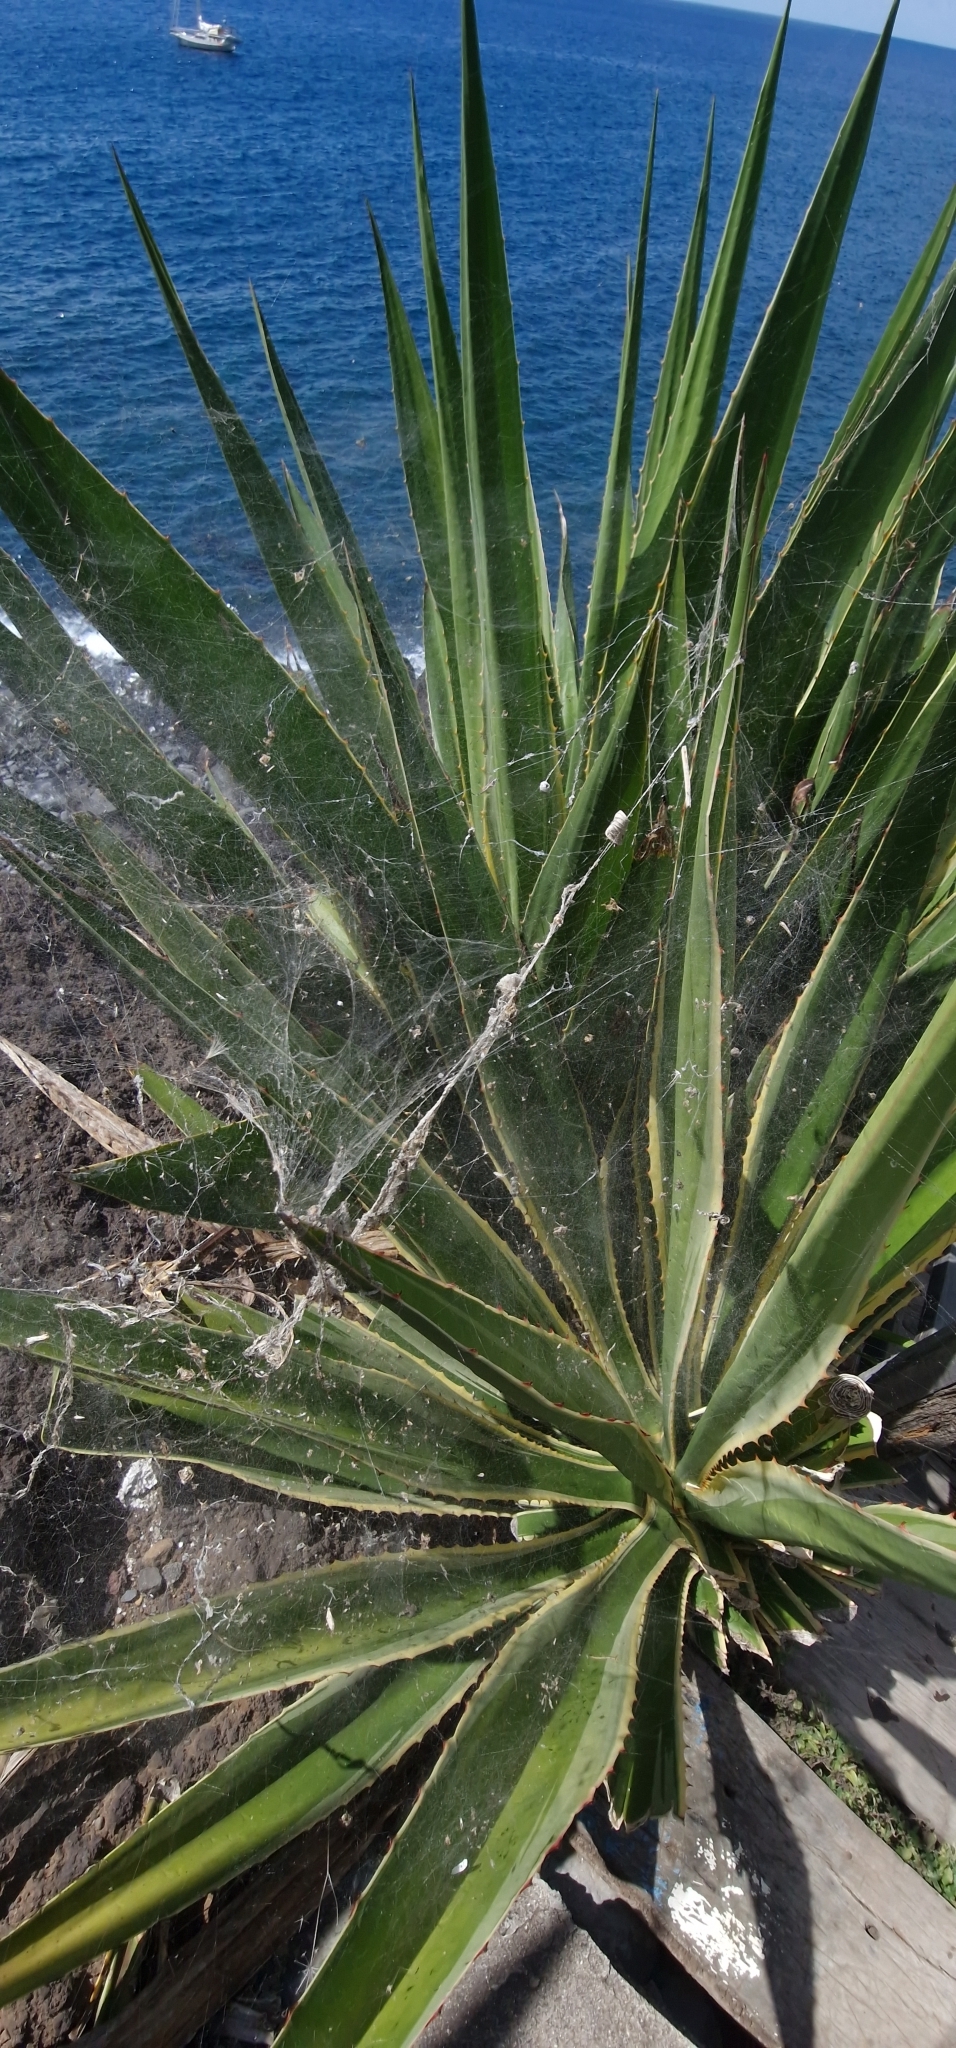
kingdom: Animalia
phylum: Arthropoda
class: Arachnida
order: Araneae
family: Araneidae
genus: Cyrtophora
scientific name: Cyrtophora citricola
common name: Orb weavers
